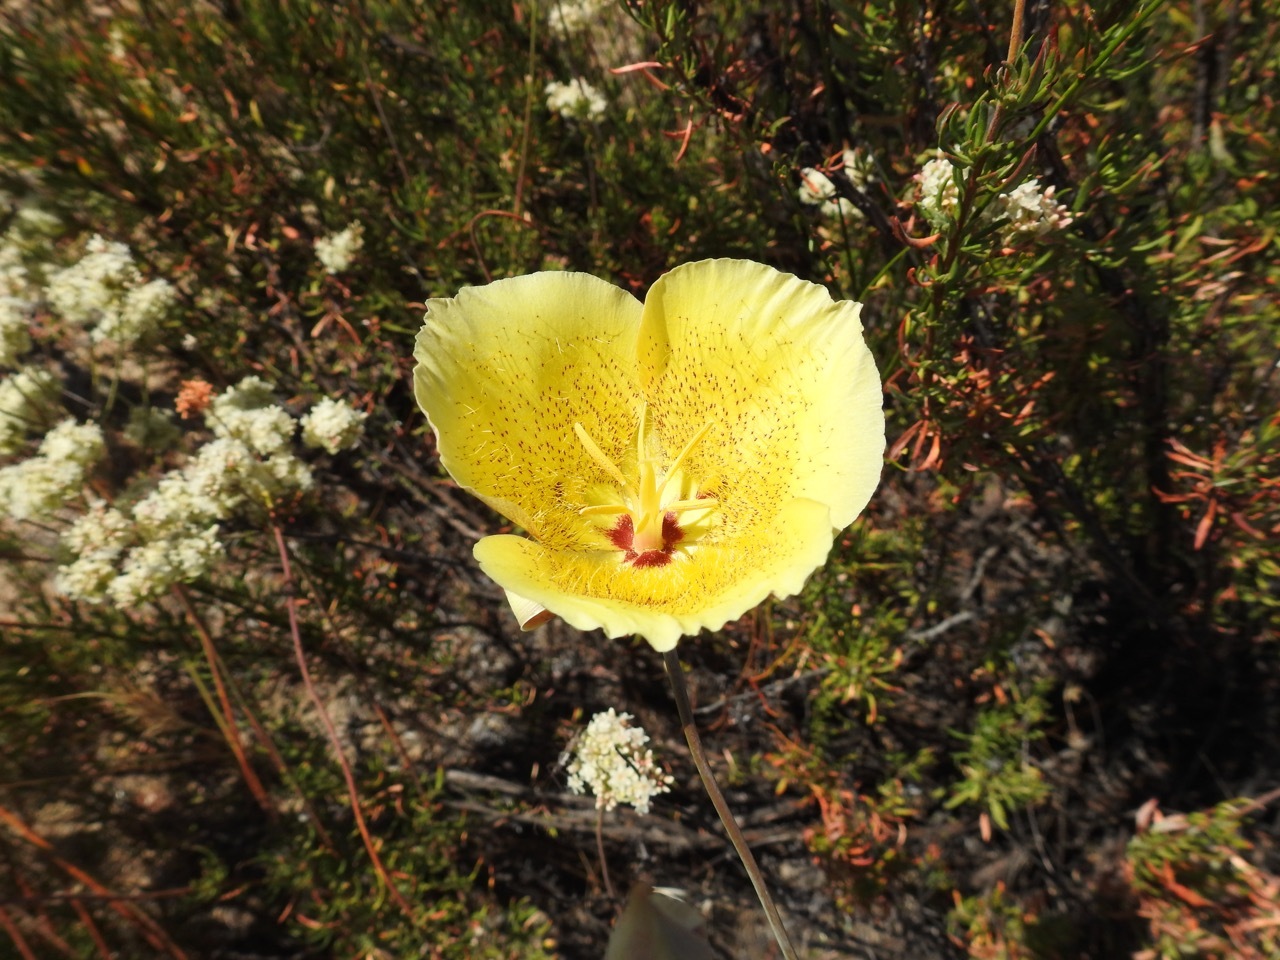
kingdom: Plantae
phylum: Tracheophyta
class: Liliopsida
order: Liliales
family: Liliaceae
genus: Calochortus
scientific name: Calochortus weedii
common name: Weed's mariposa-lily
